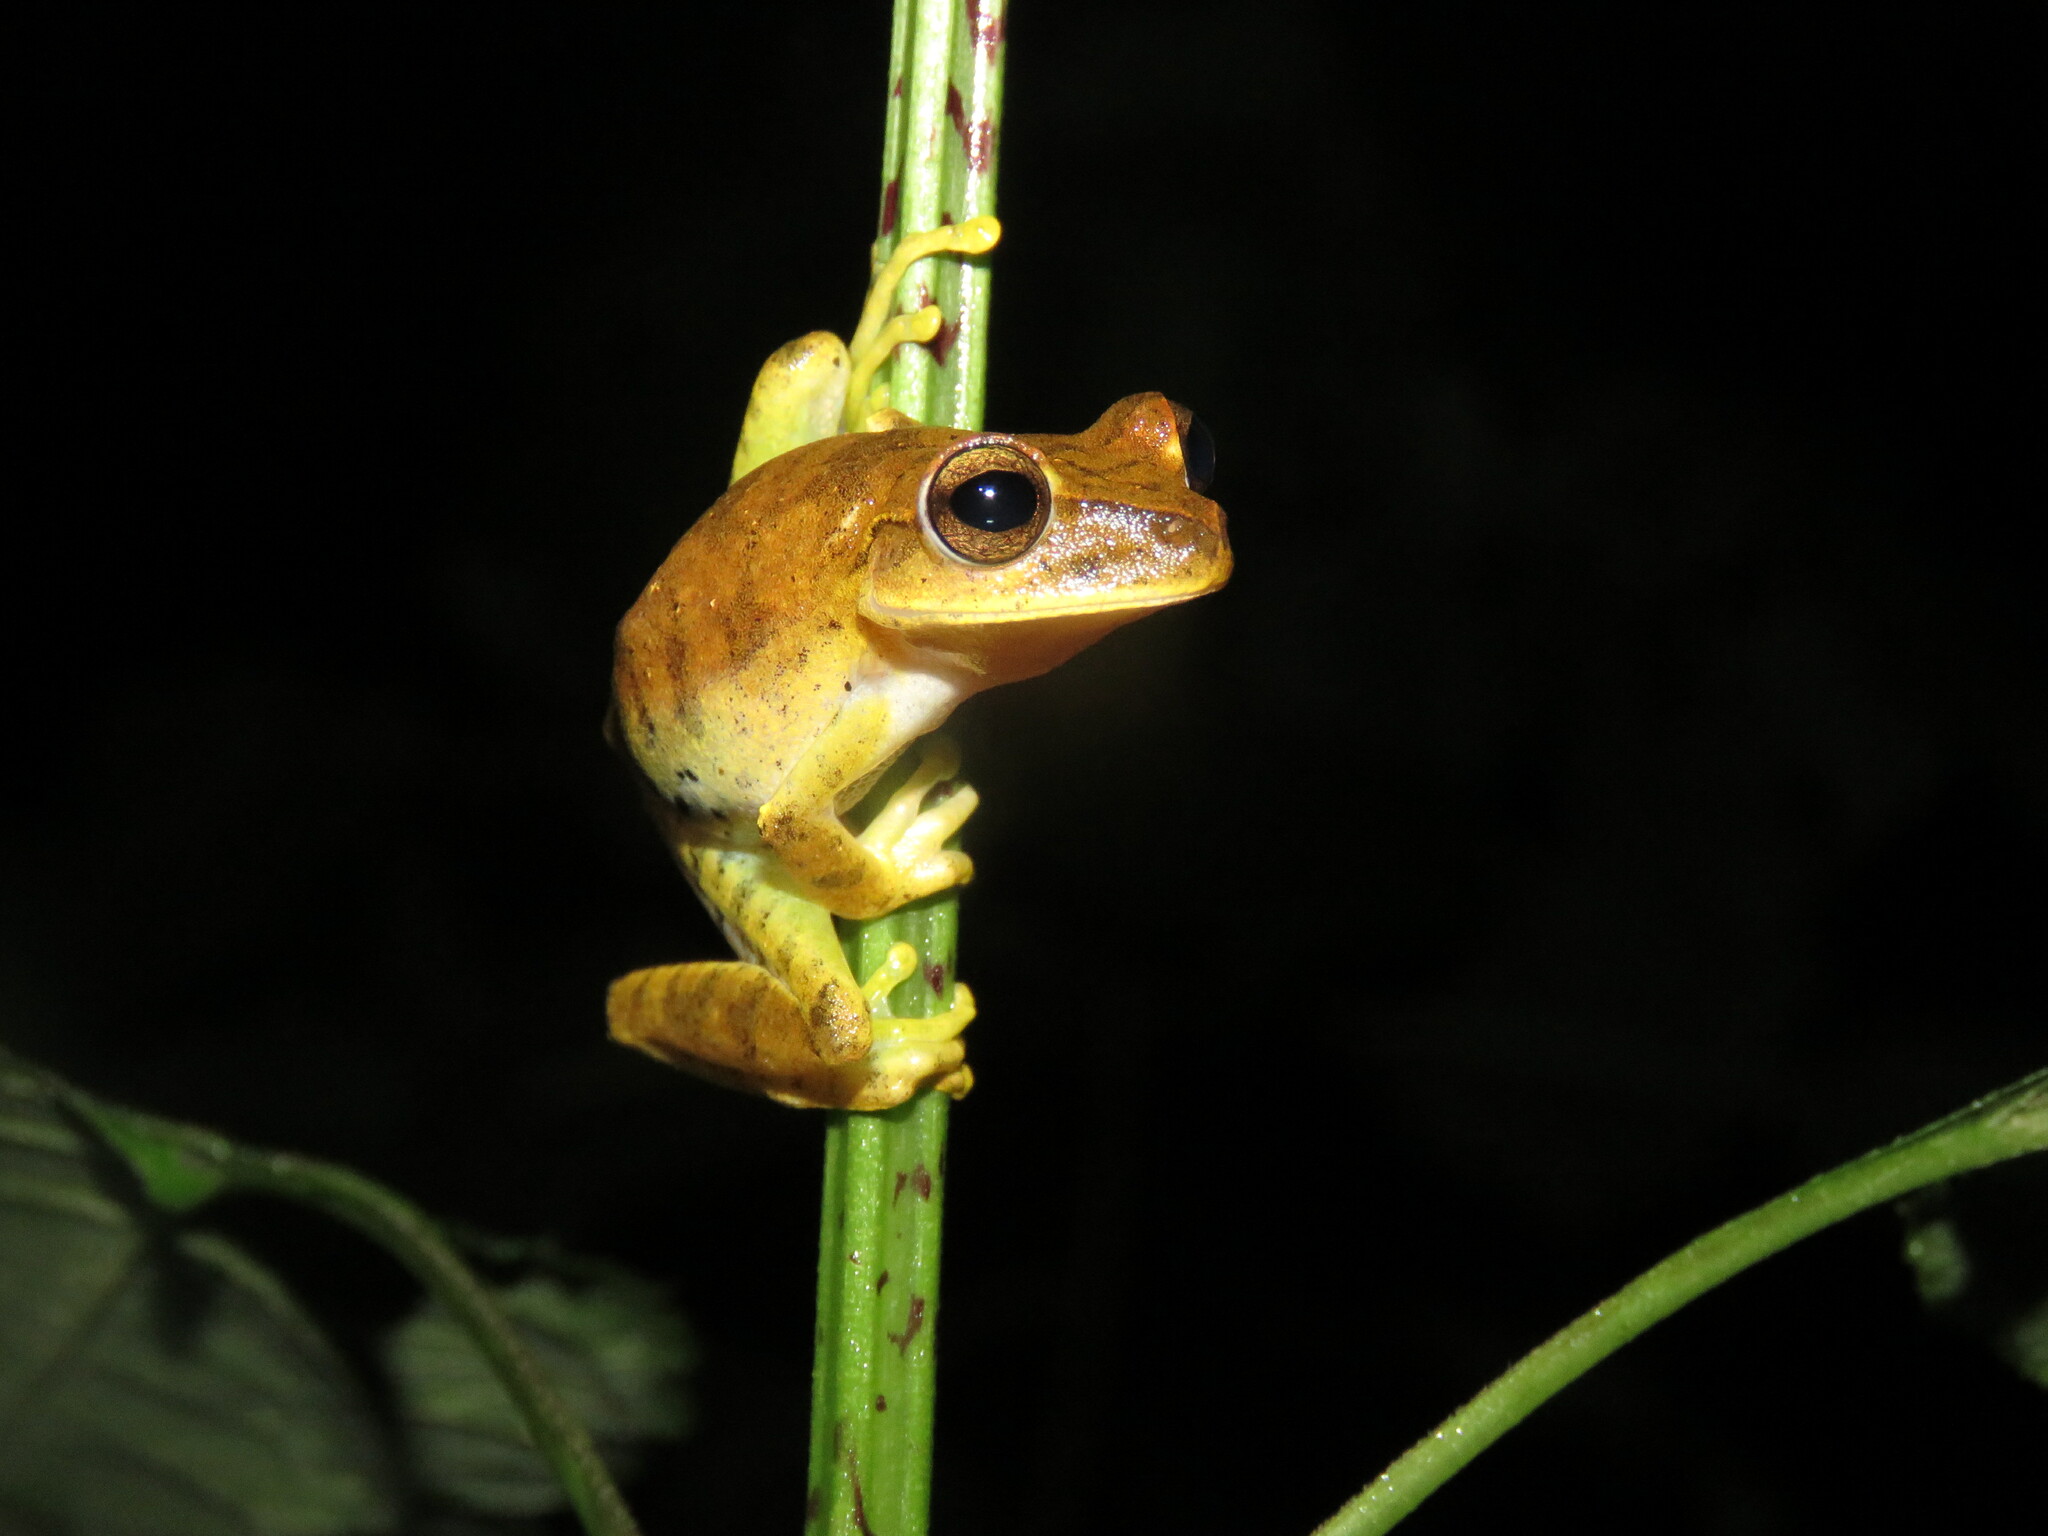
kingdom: Animalia
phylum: Chordata
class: Amphibia
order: Anura
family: Hylidae
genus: Boana
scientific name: Boana steinbachi
